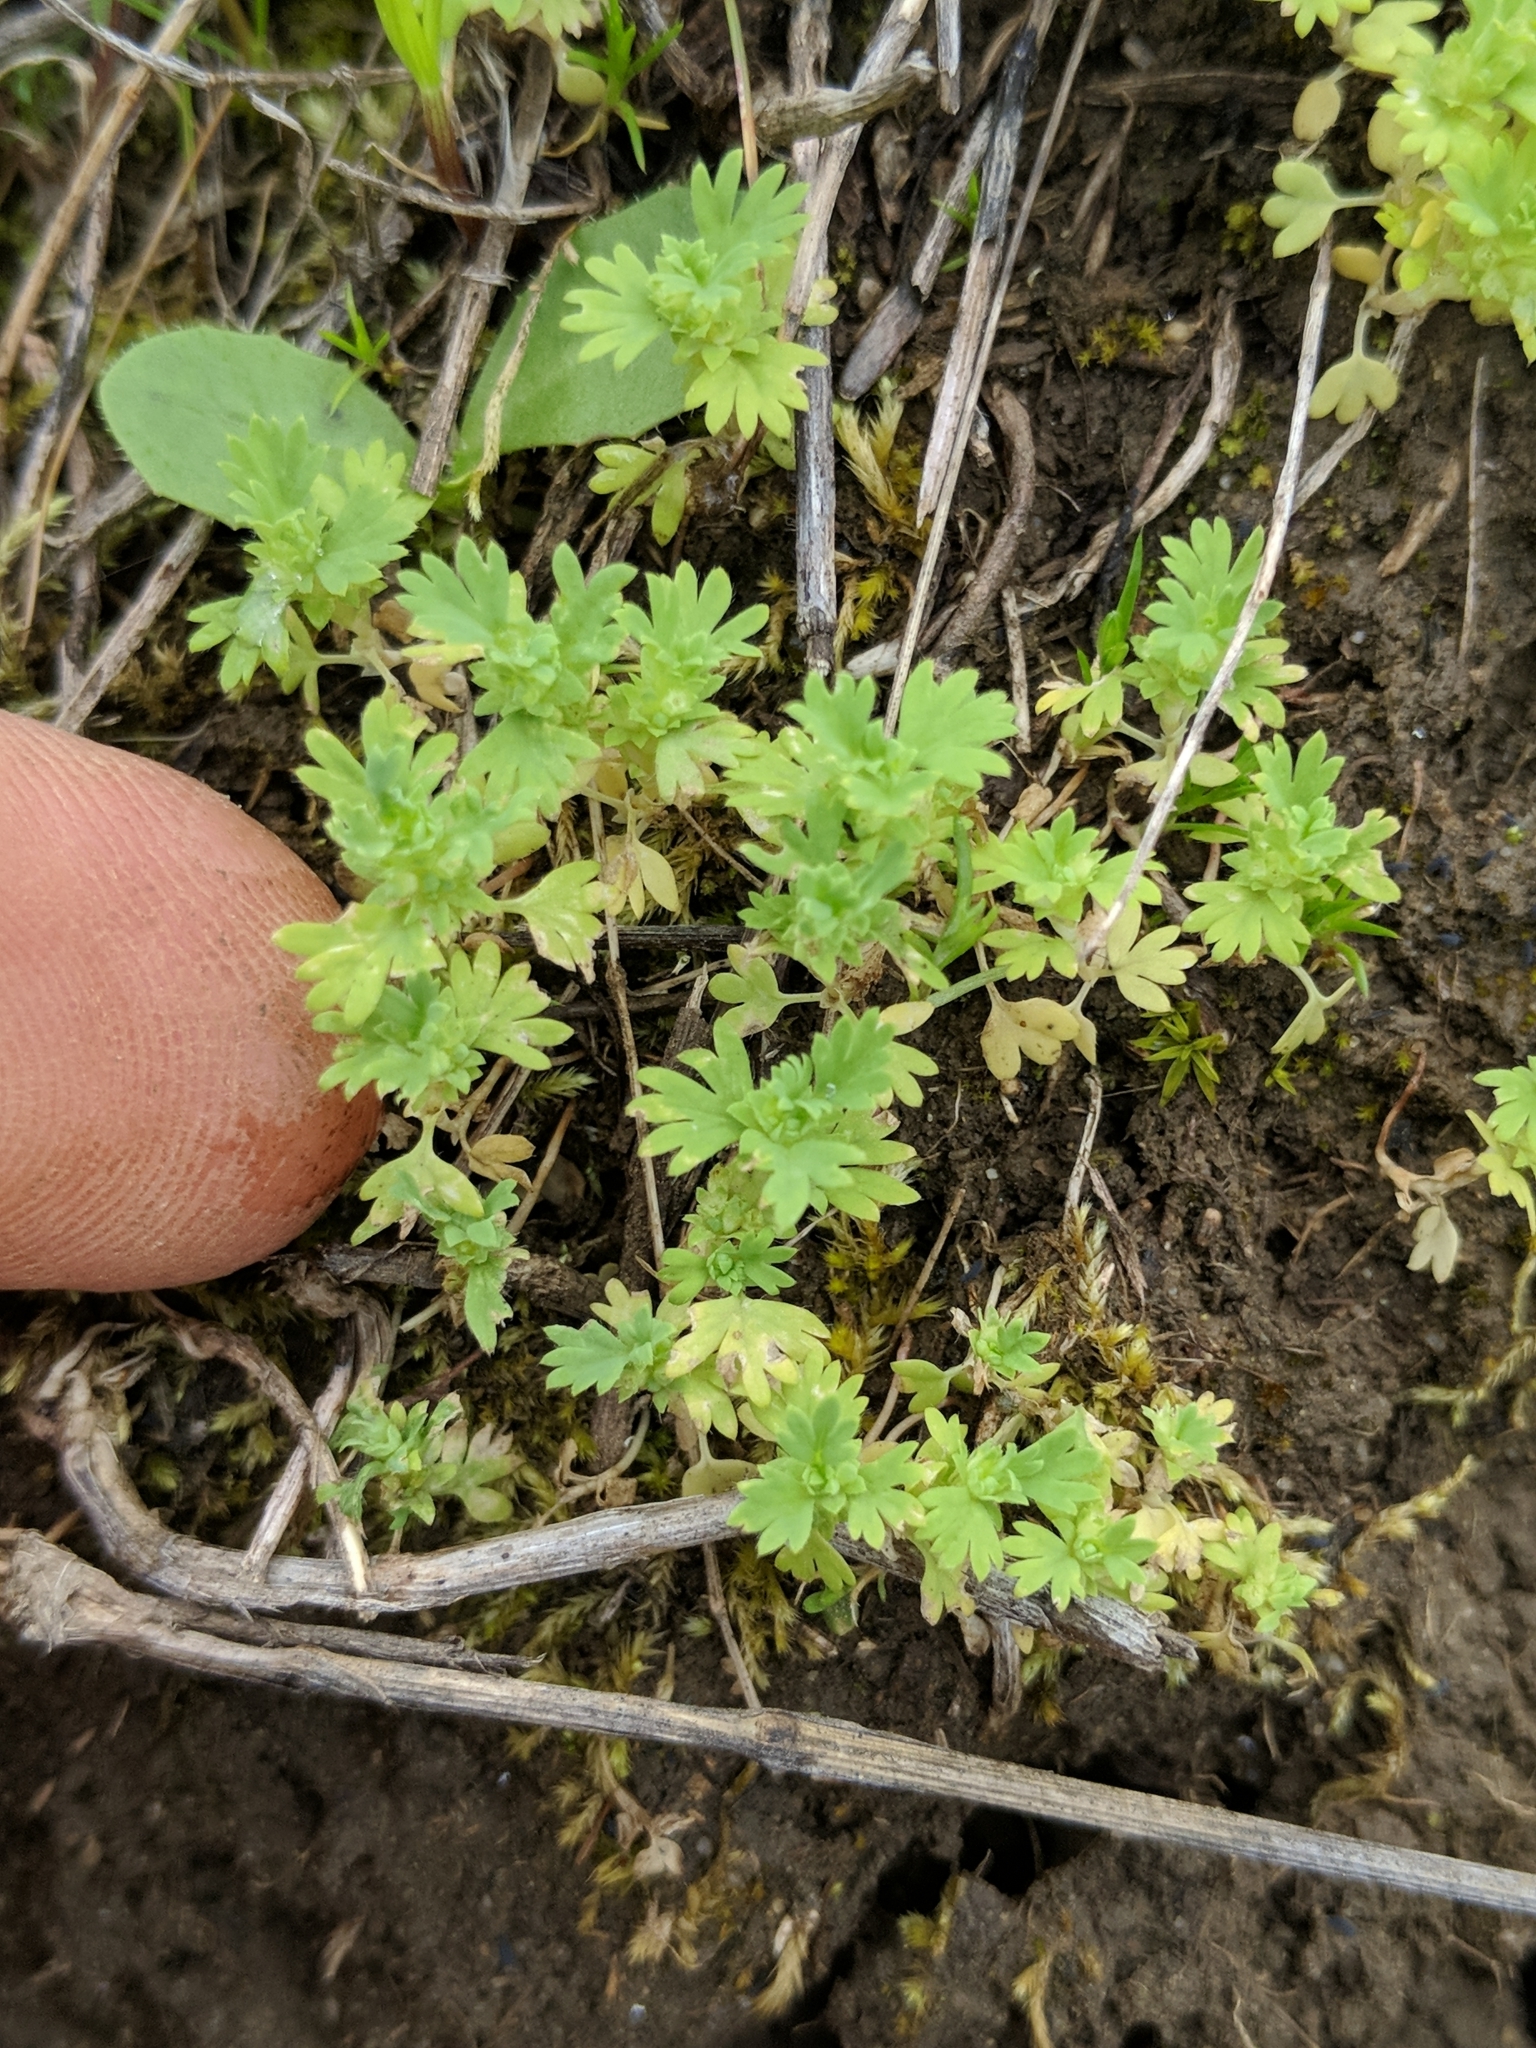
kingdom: Plantae
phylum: Tracheophyta
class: Magnoliopsida
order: Rosales
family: Rosaceae
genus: Aphanes
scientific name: Aphanes arvensis
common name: Parsley-piert
